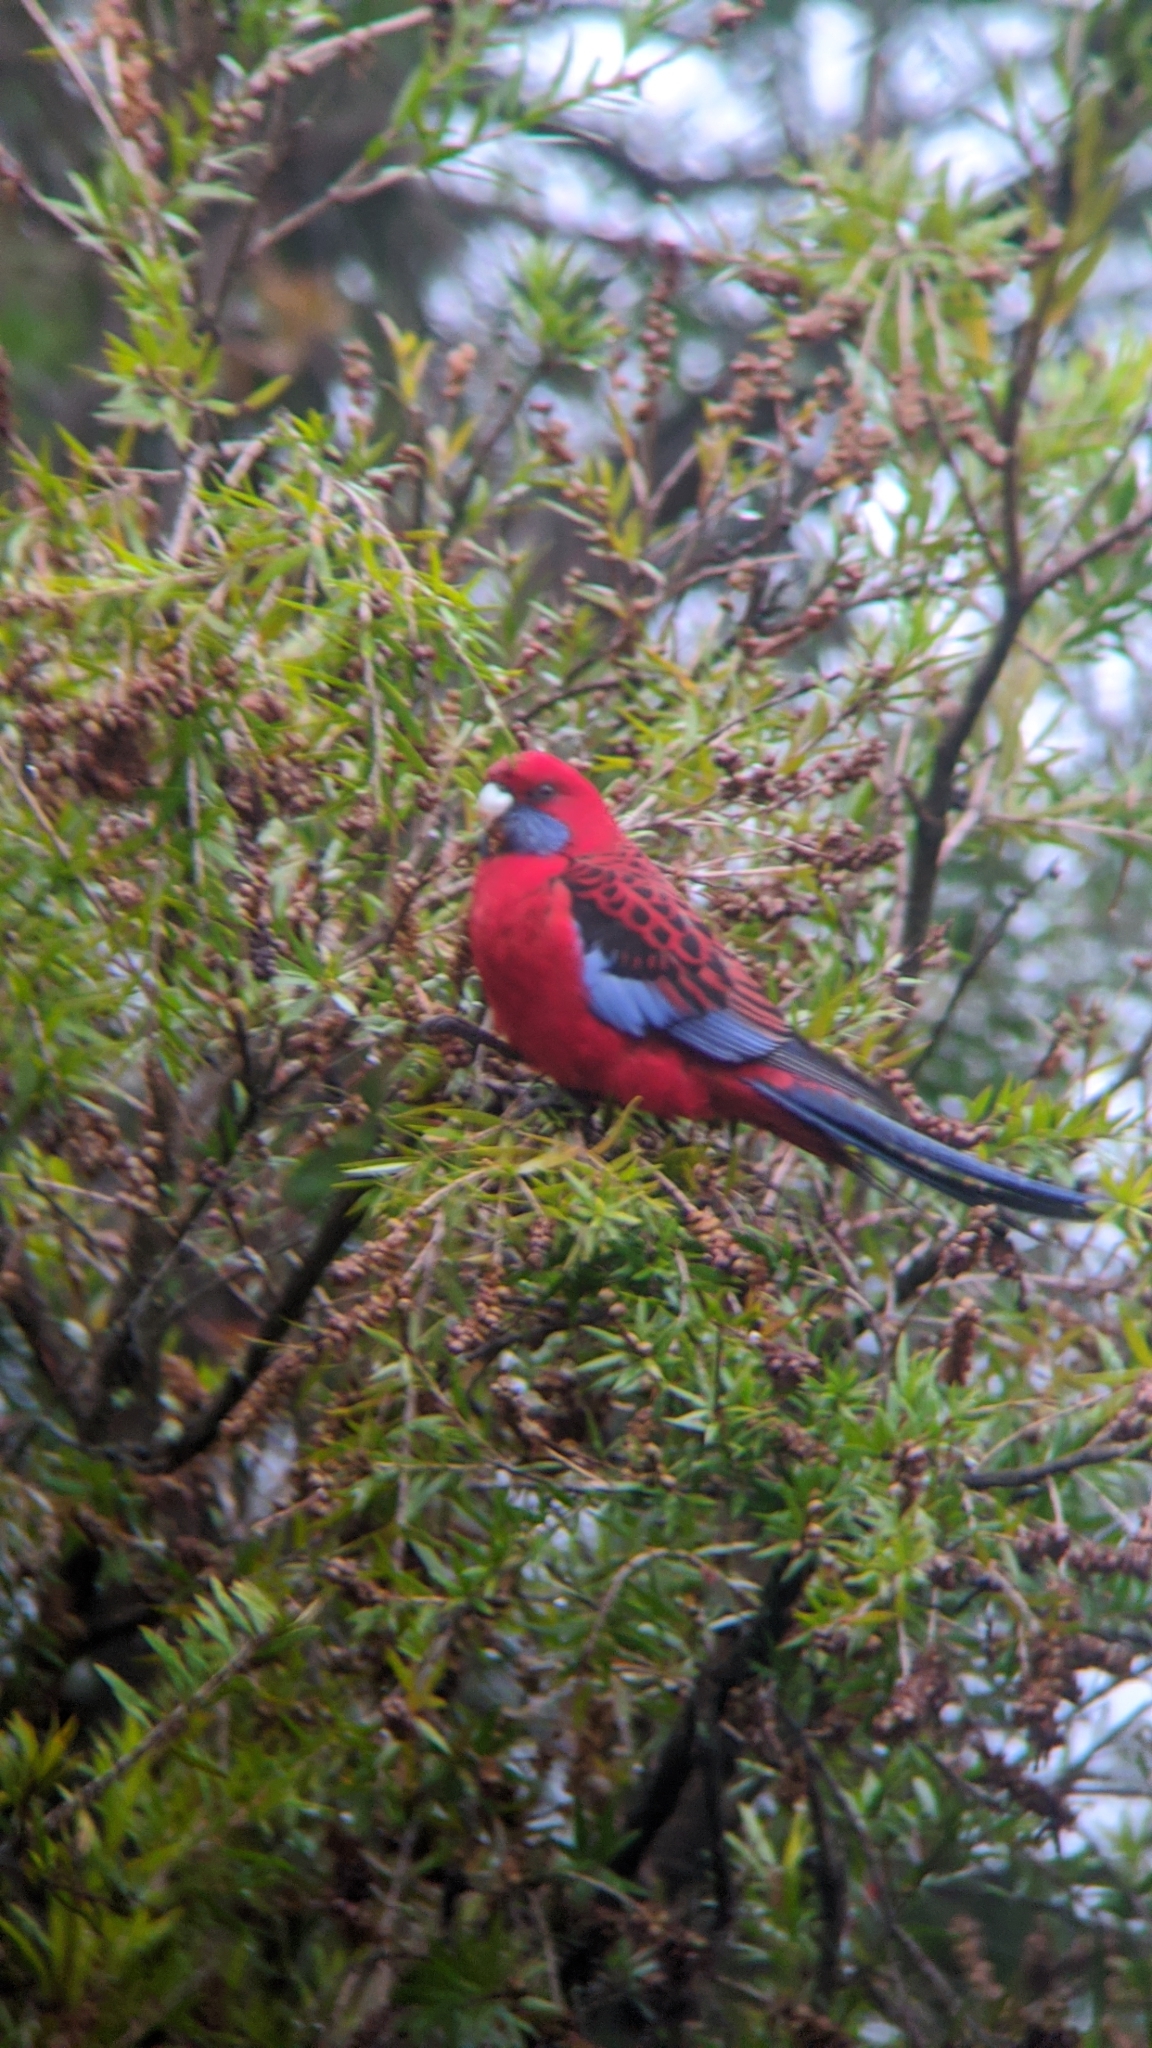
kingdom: Animalia
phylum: Chordata
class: Aves
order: Psittaciformes
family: Psittacidae
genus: Platycercus
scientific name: Platycercus elegans
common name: Crimson rosella
